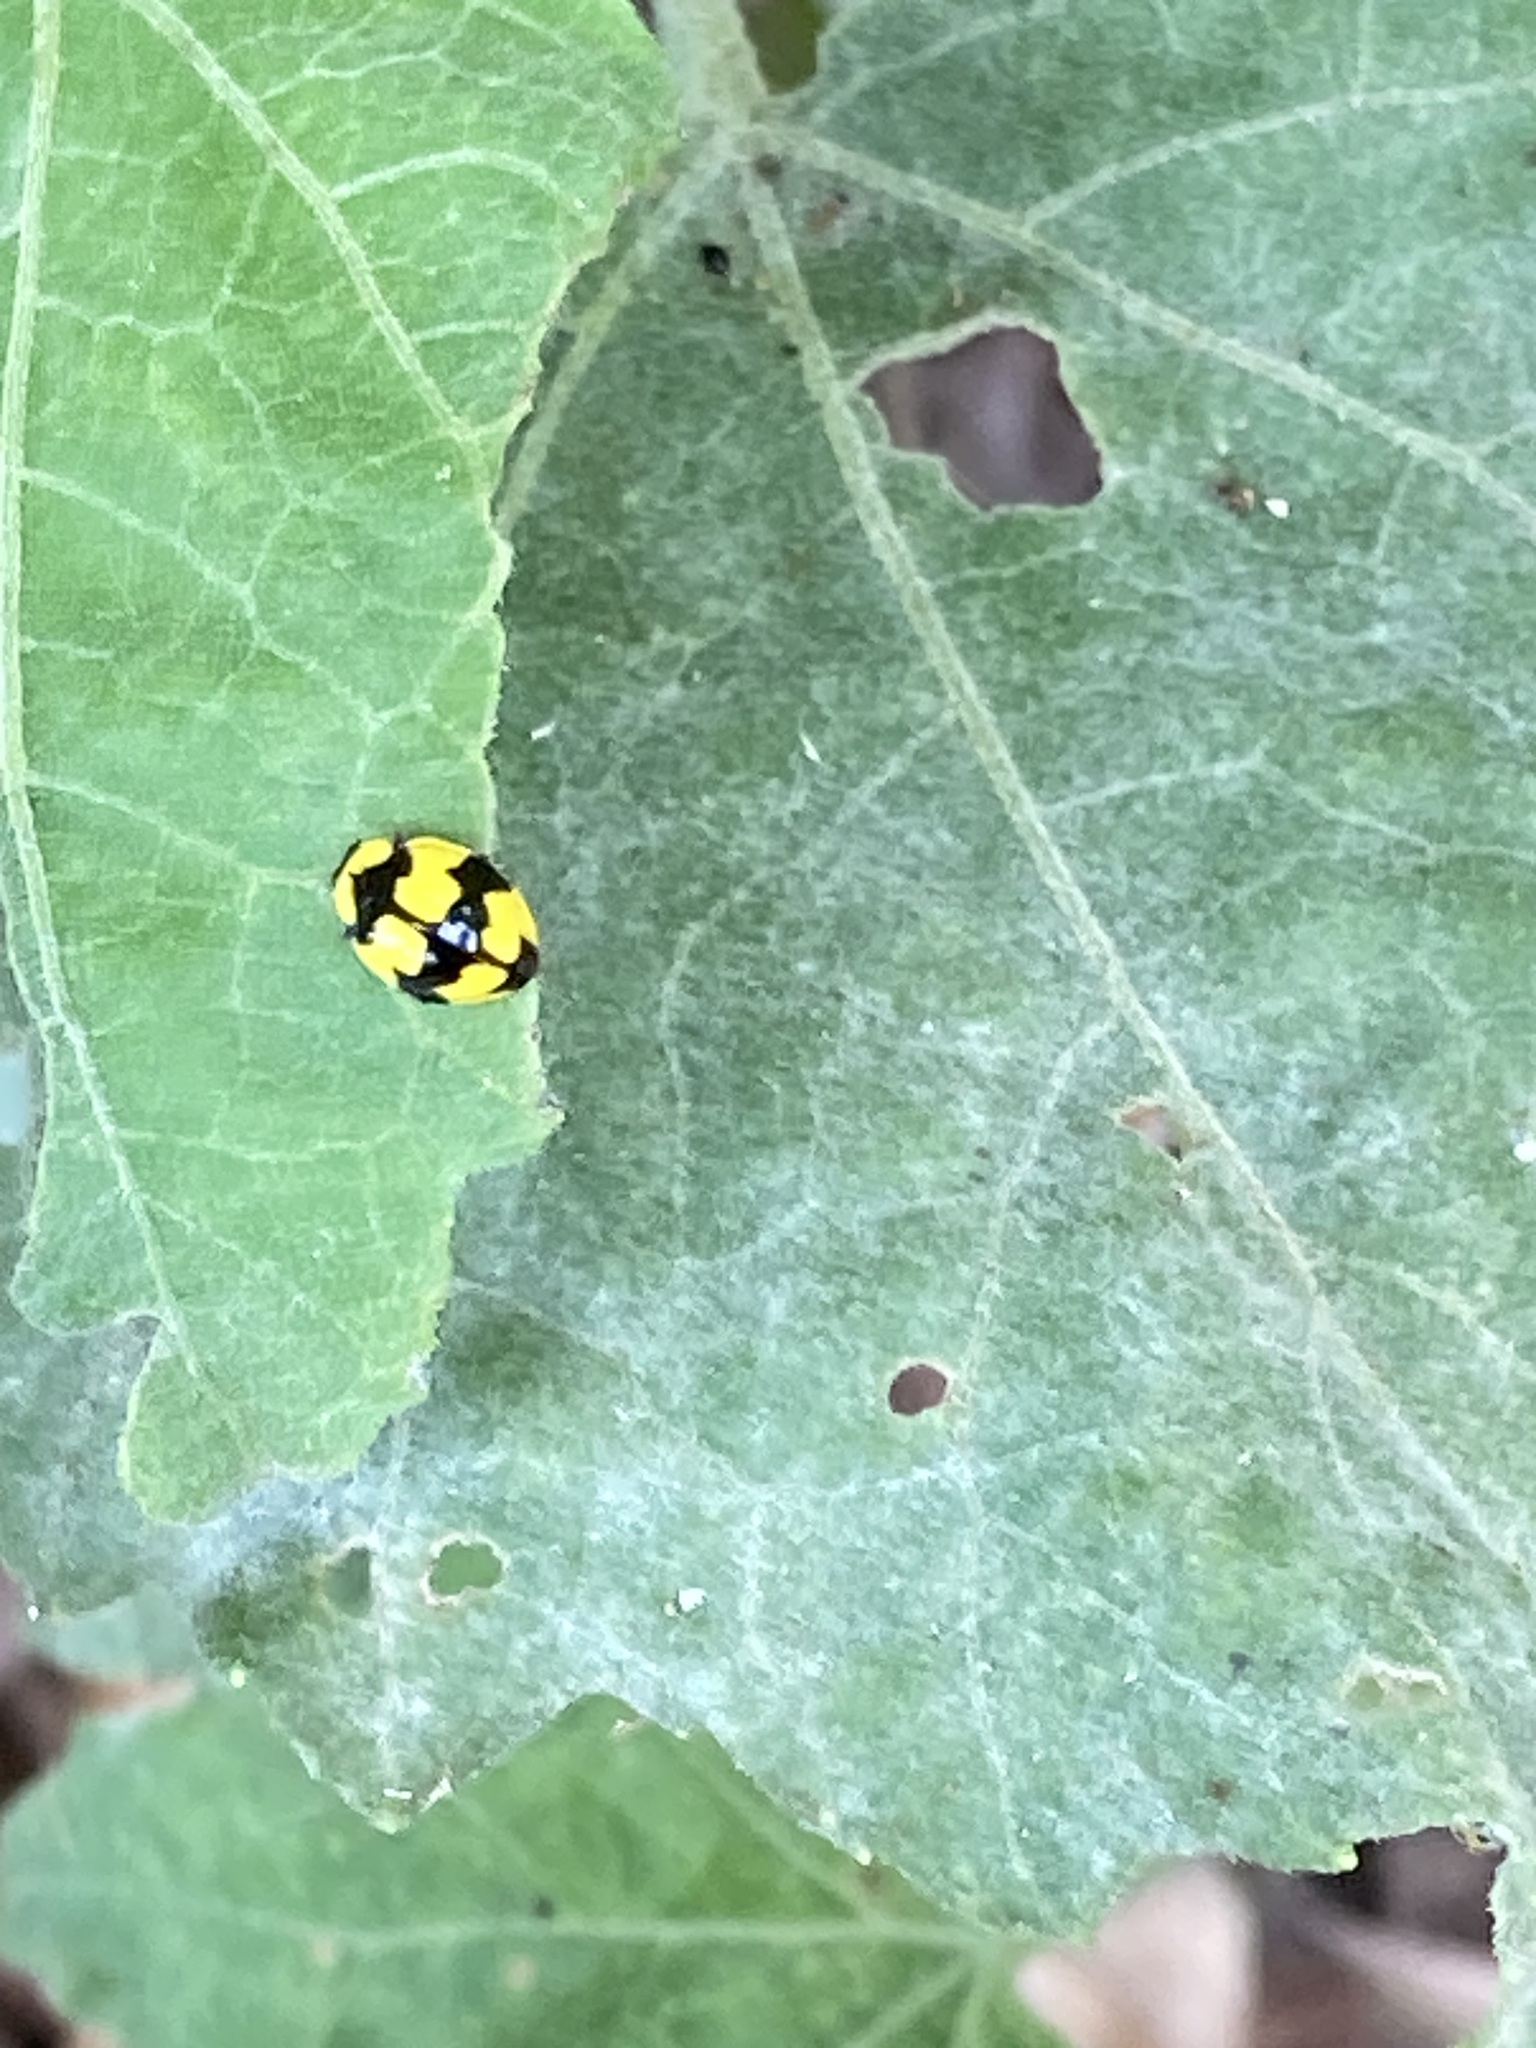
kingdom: Animalia
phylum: Arthropoda
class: Insecta
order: Coleoptera
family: Coccinellidae
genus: Illeis
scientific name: Illeis galbula
